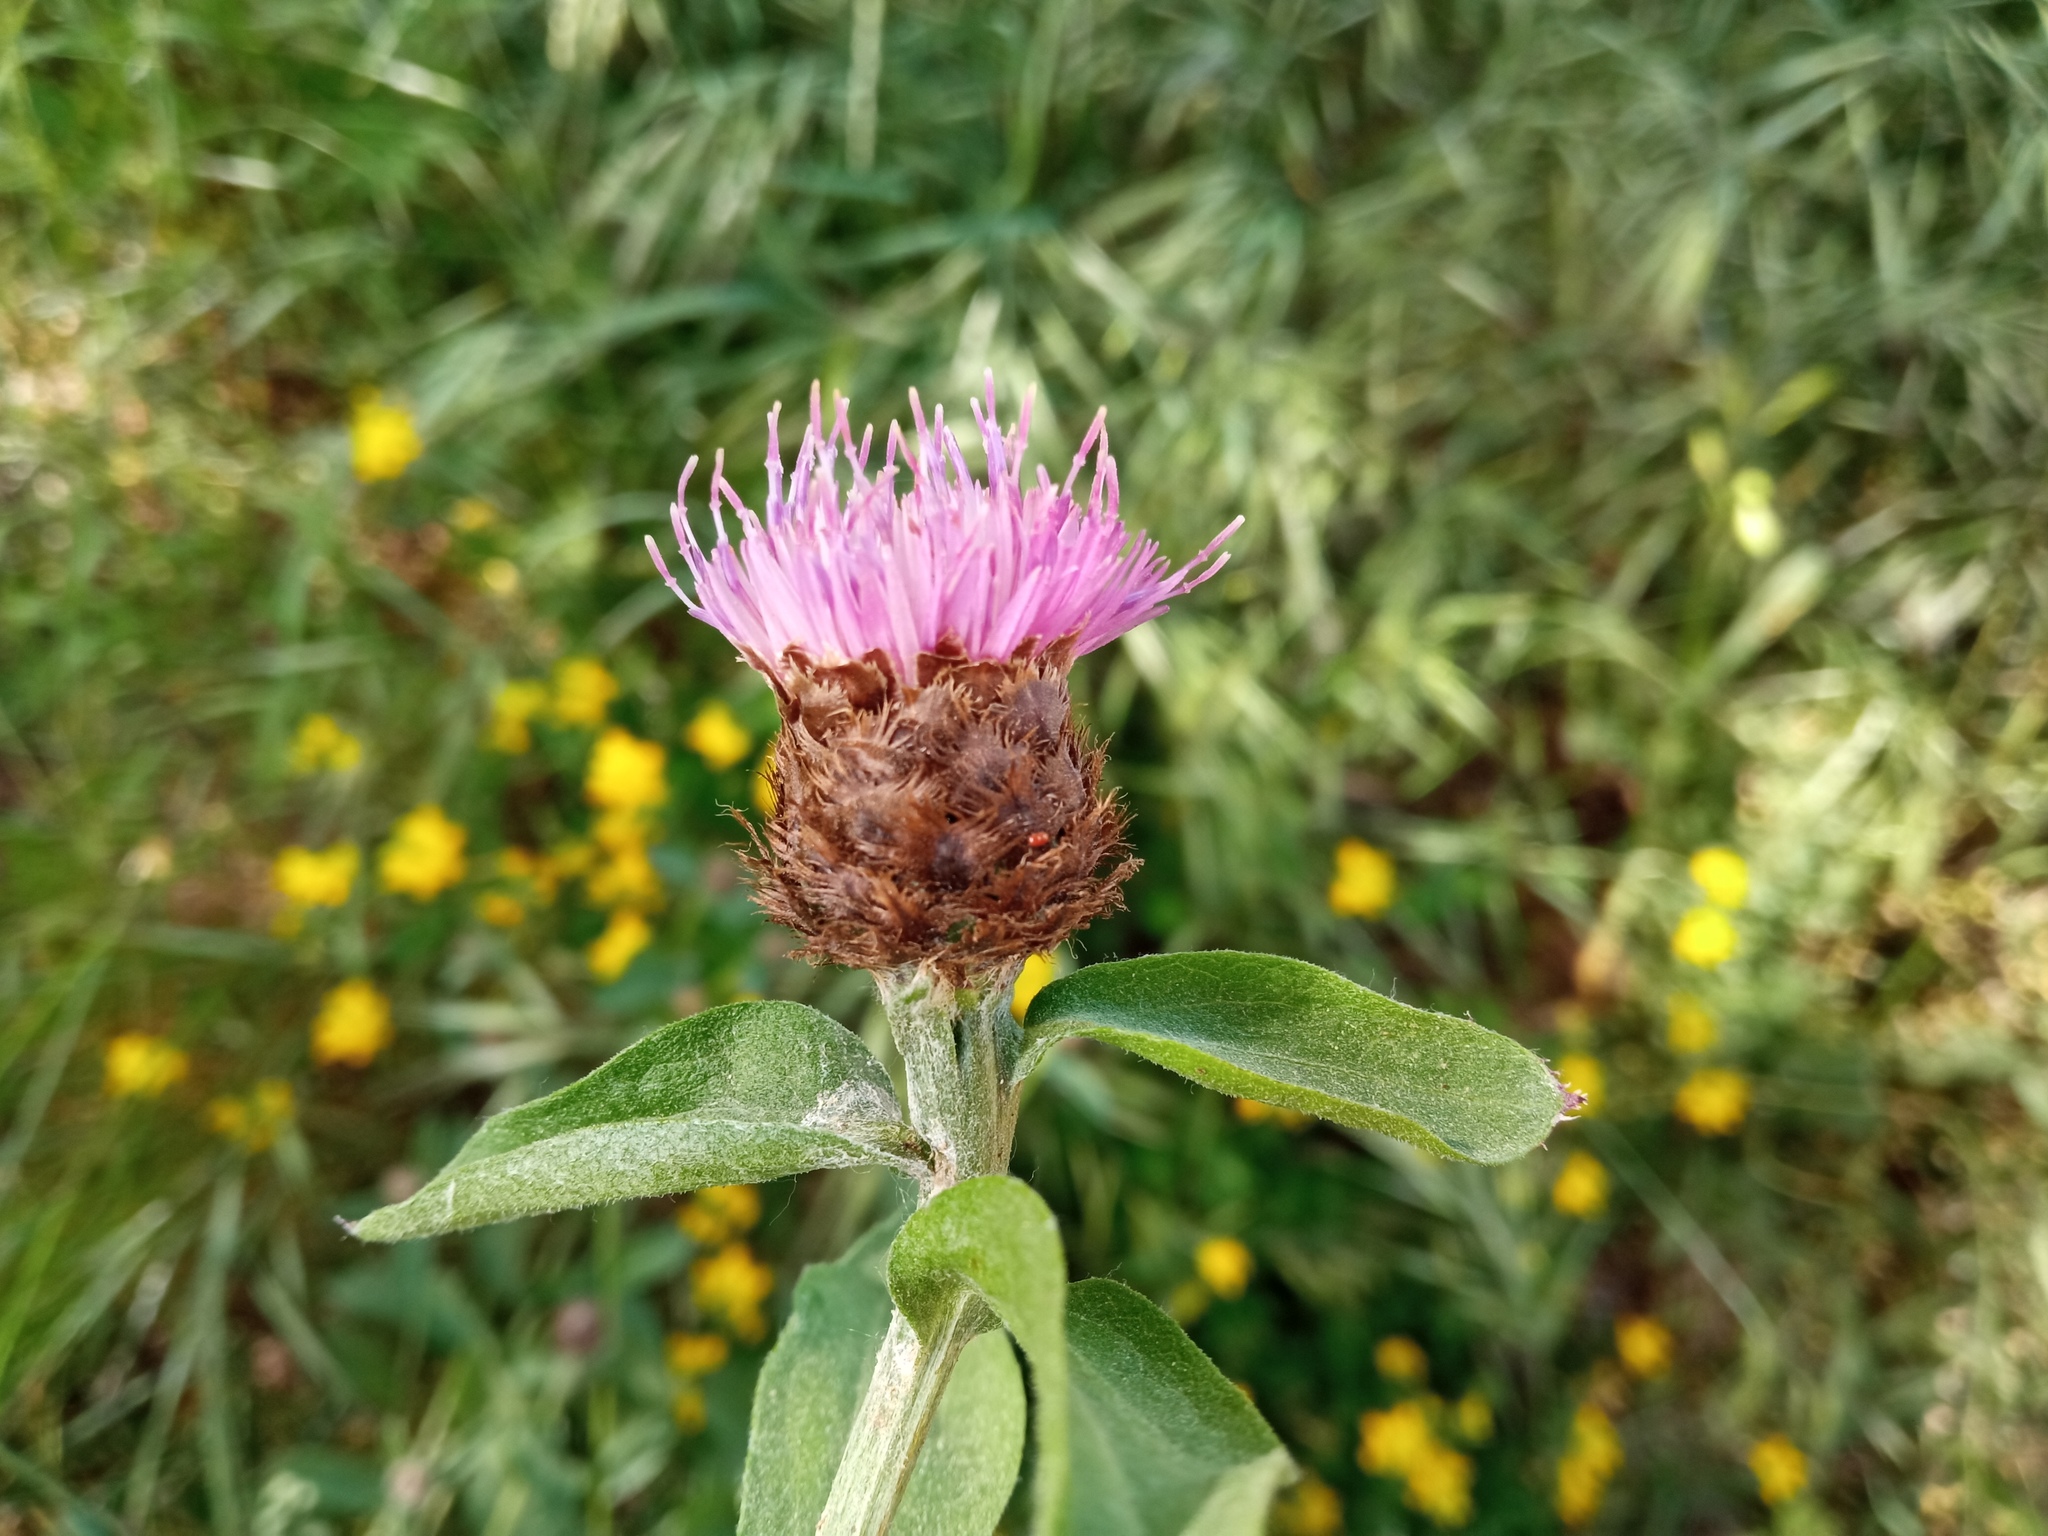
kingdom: Plantae
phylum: Tracheophyta
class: Magnoliopsida
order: Asterales
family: Asteraceae
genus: Centaurea
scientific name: Centaurea jacea
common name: Brown knapweed
